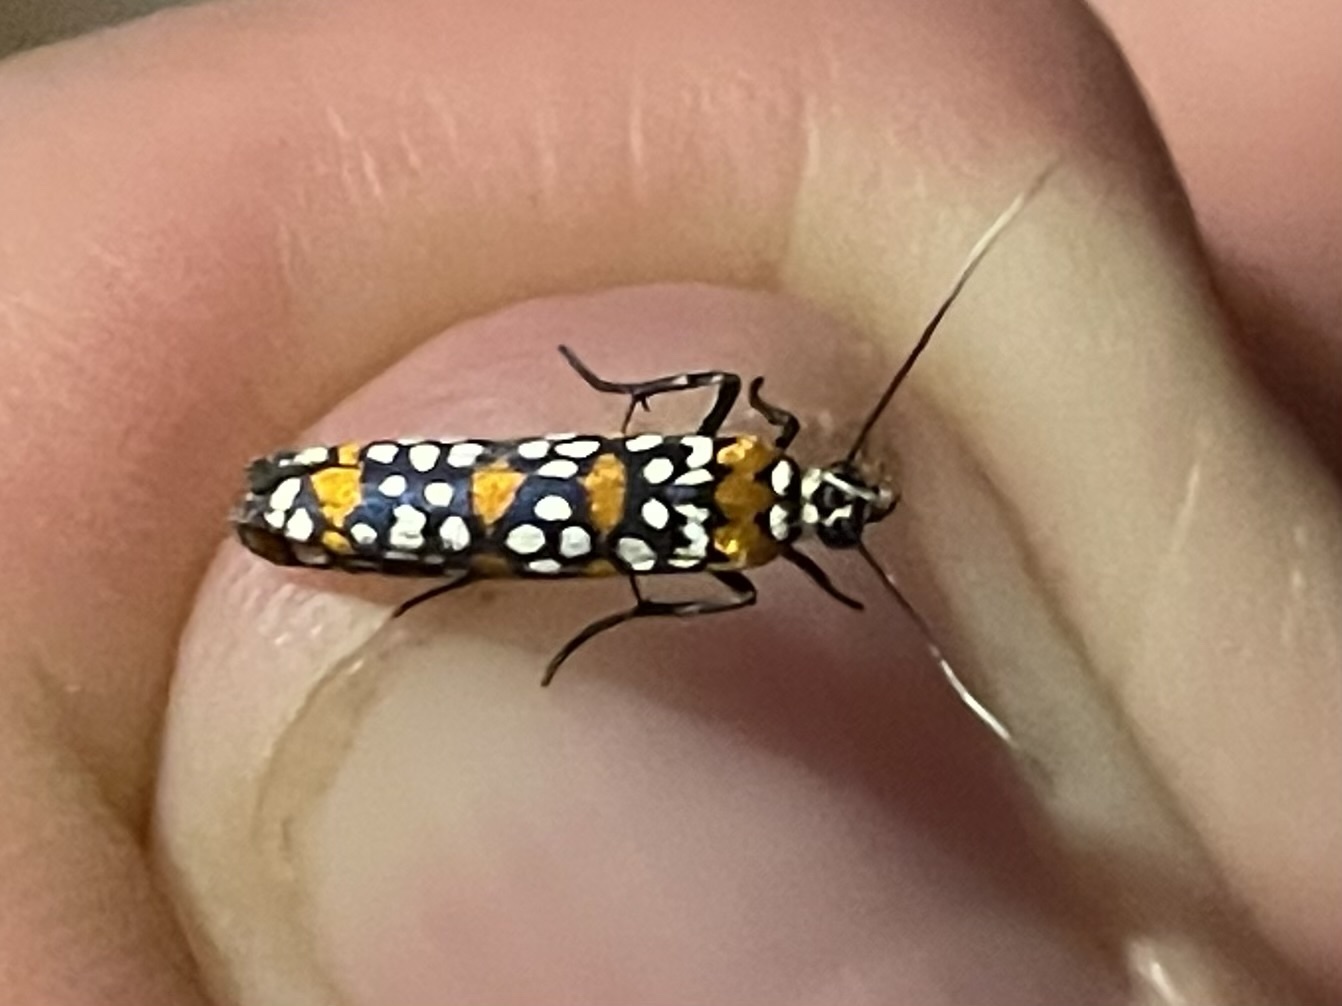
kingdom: Animalia
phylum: Arthropoda
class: Insecta
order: Lepidoptera
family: Attevidae
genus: Atteva
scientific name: Atteva punctella
